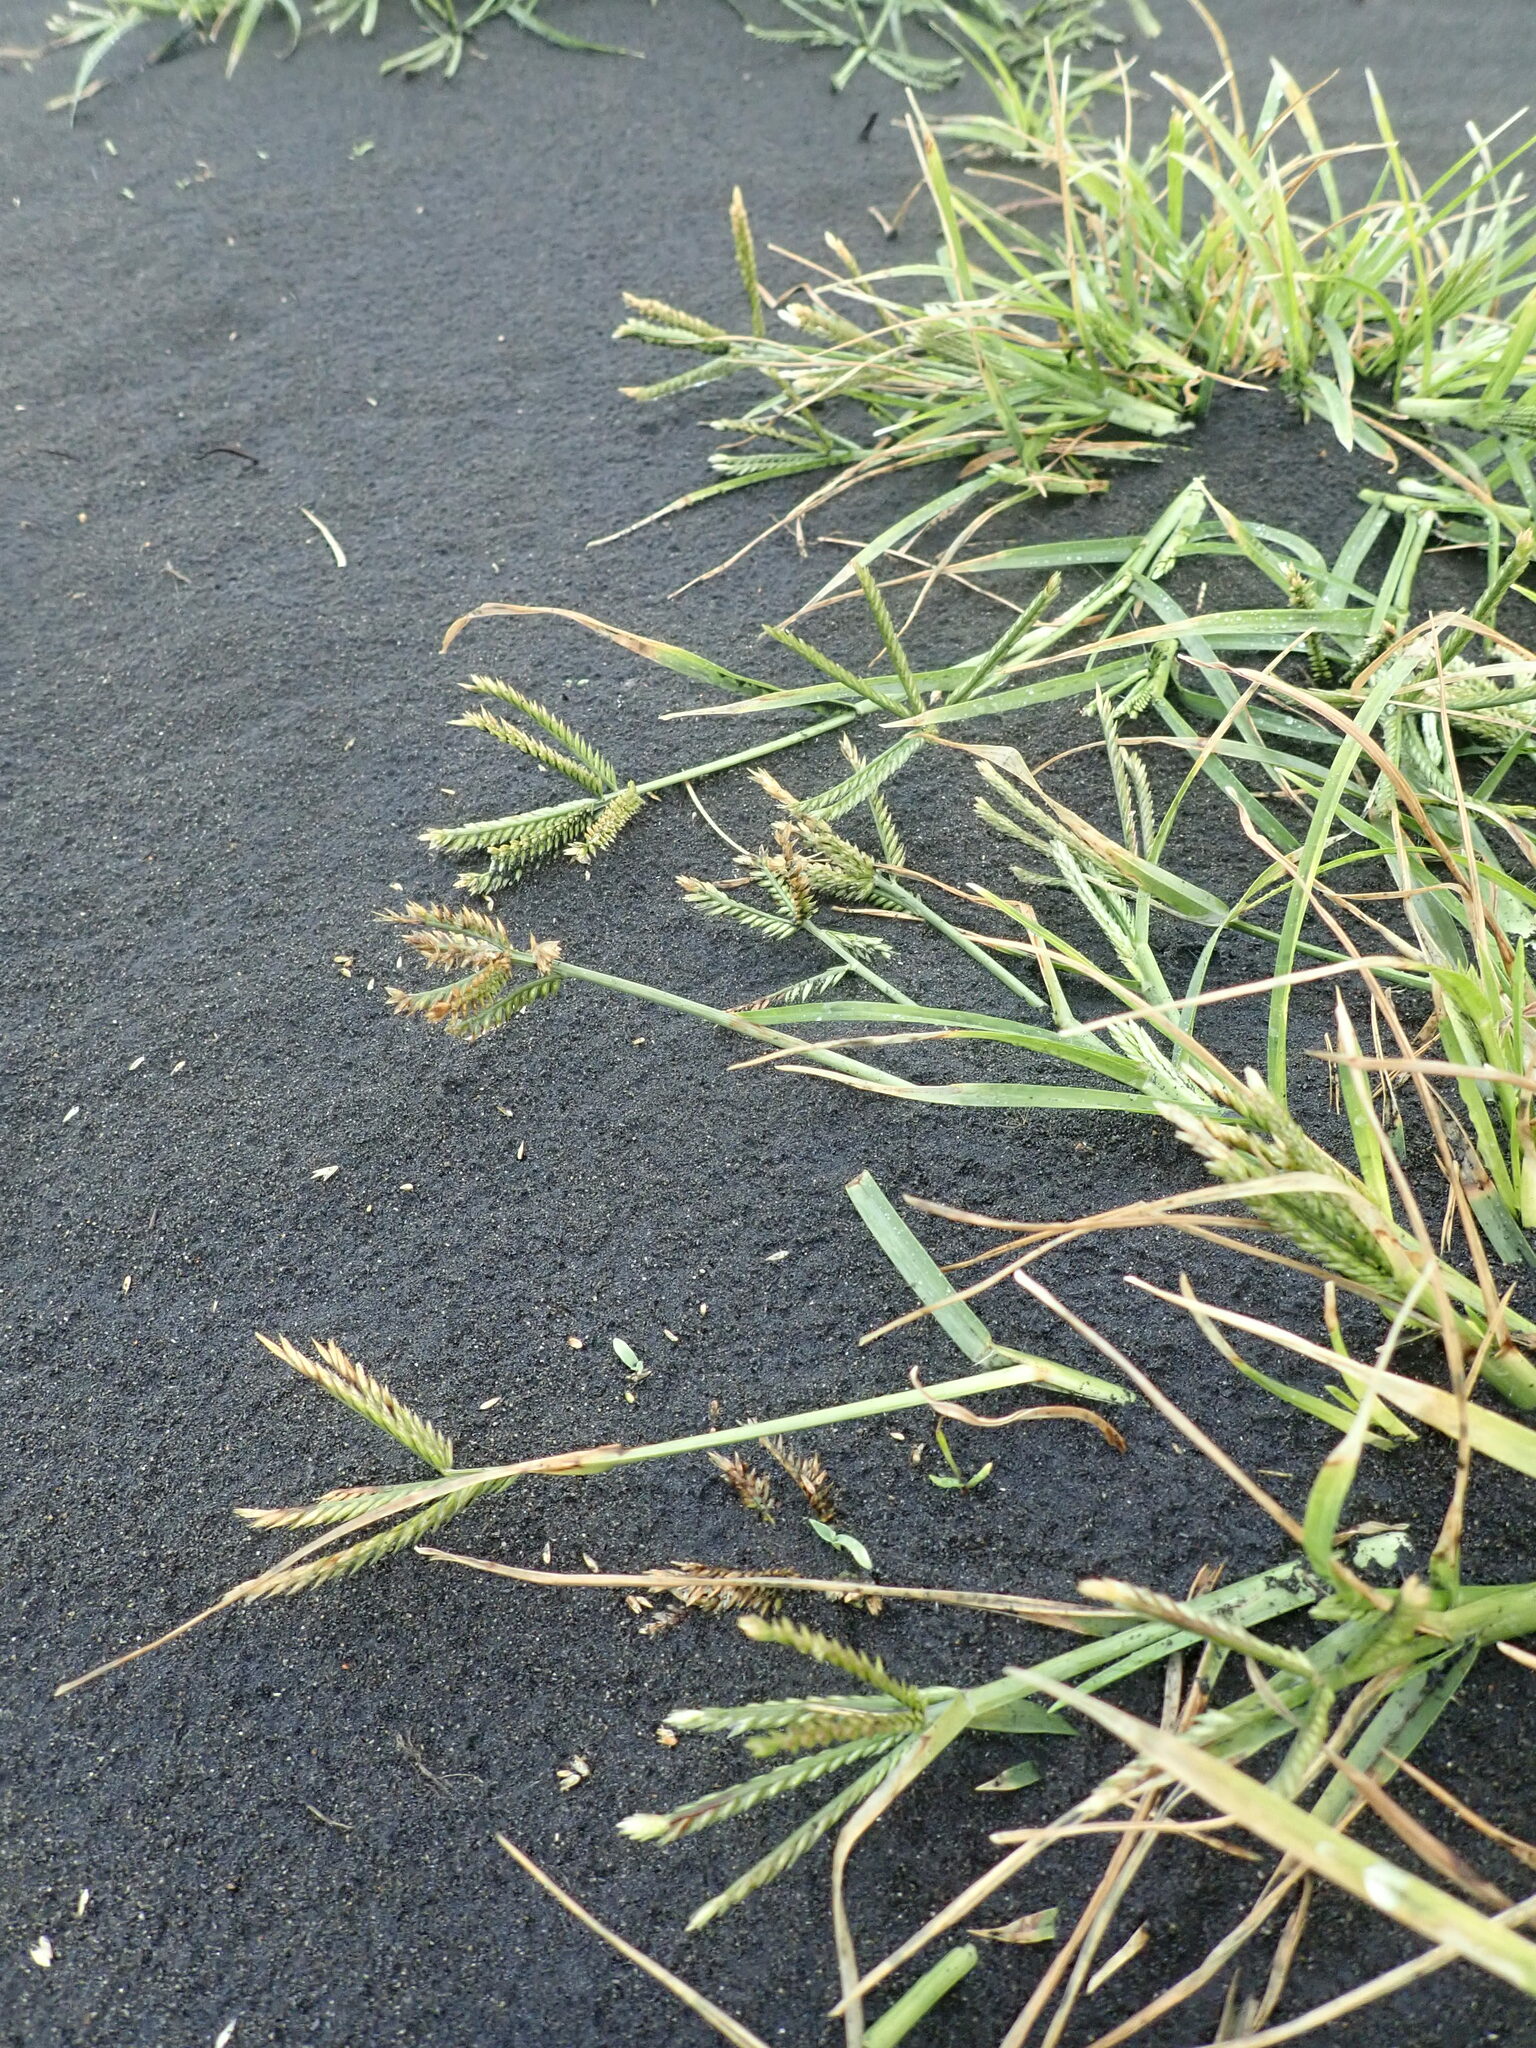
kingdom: Plantae
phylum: Tracheophyta
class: Liliopsida
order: Poales
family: Poaceae
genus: Eleusine
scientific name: Eleusine indica
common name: Yard-grass
